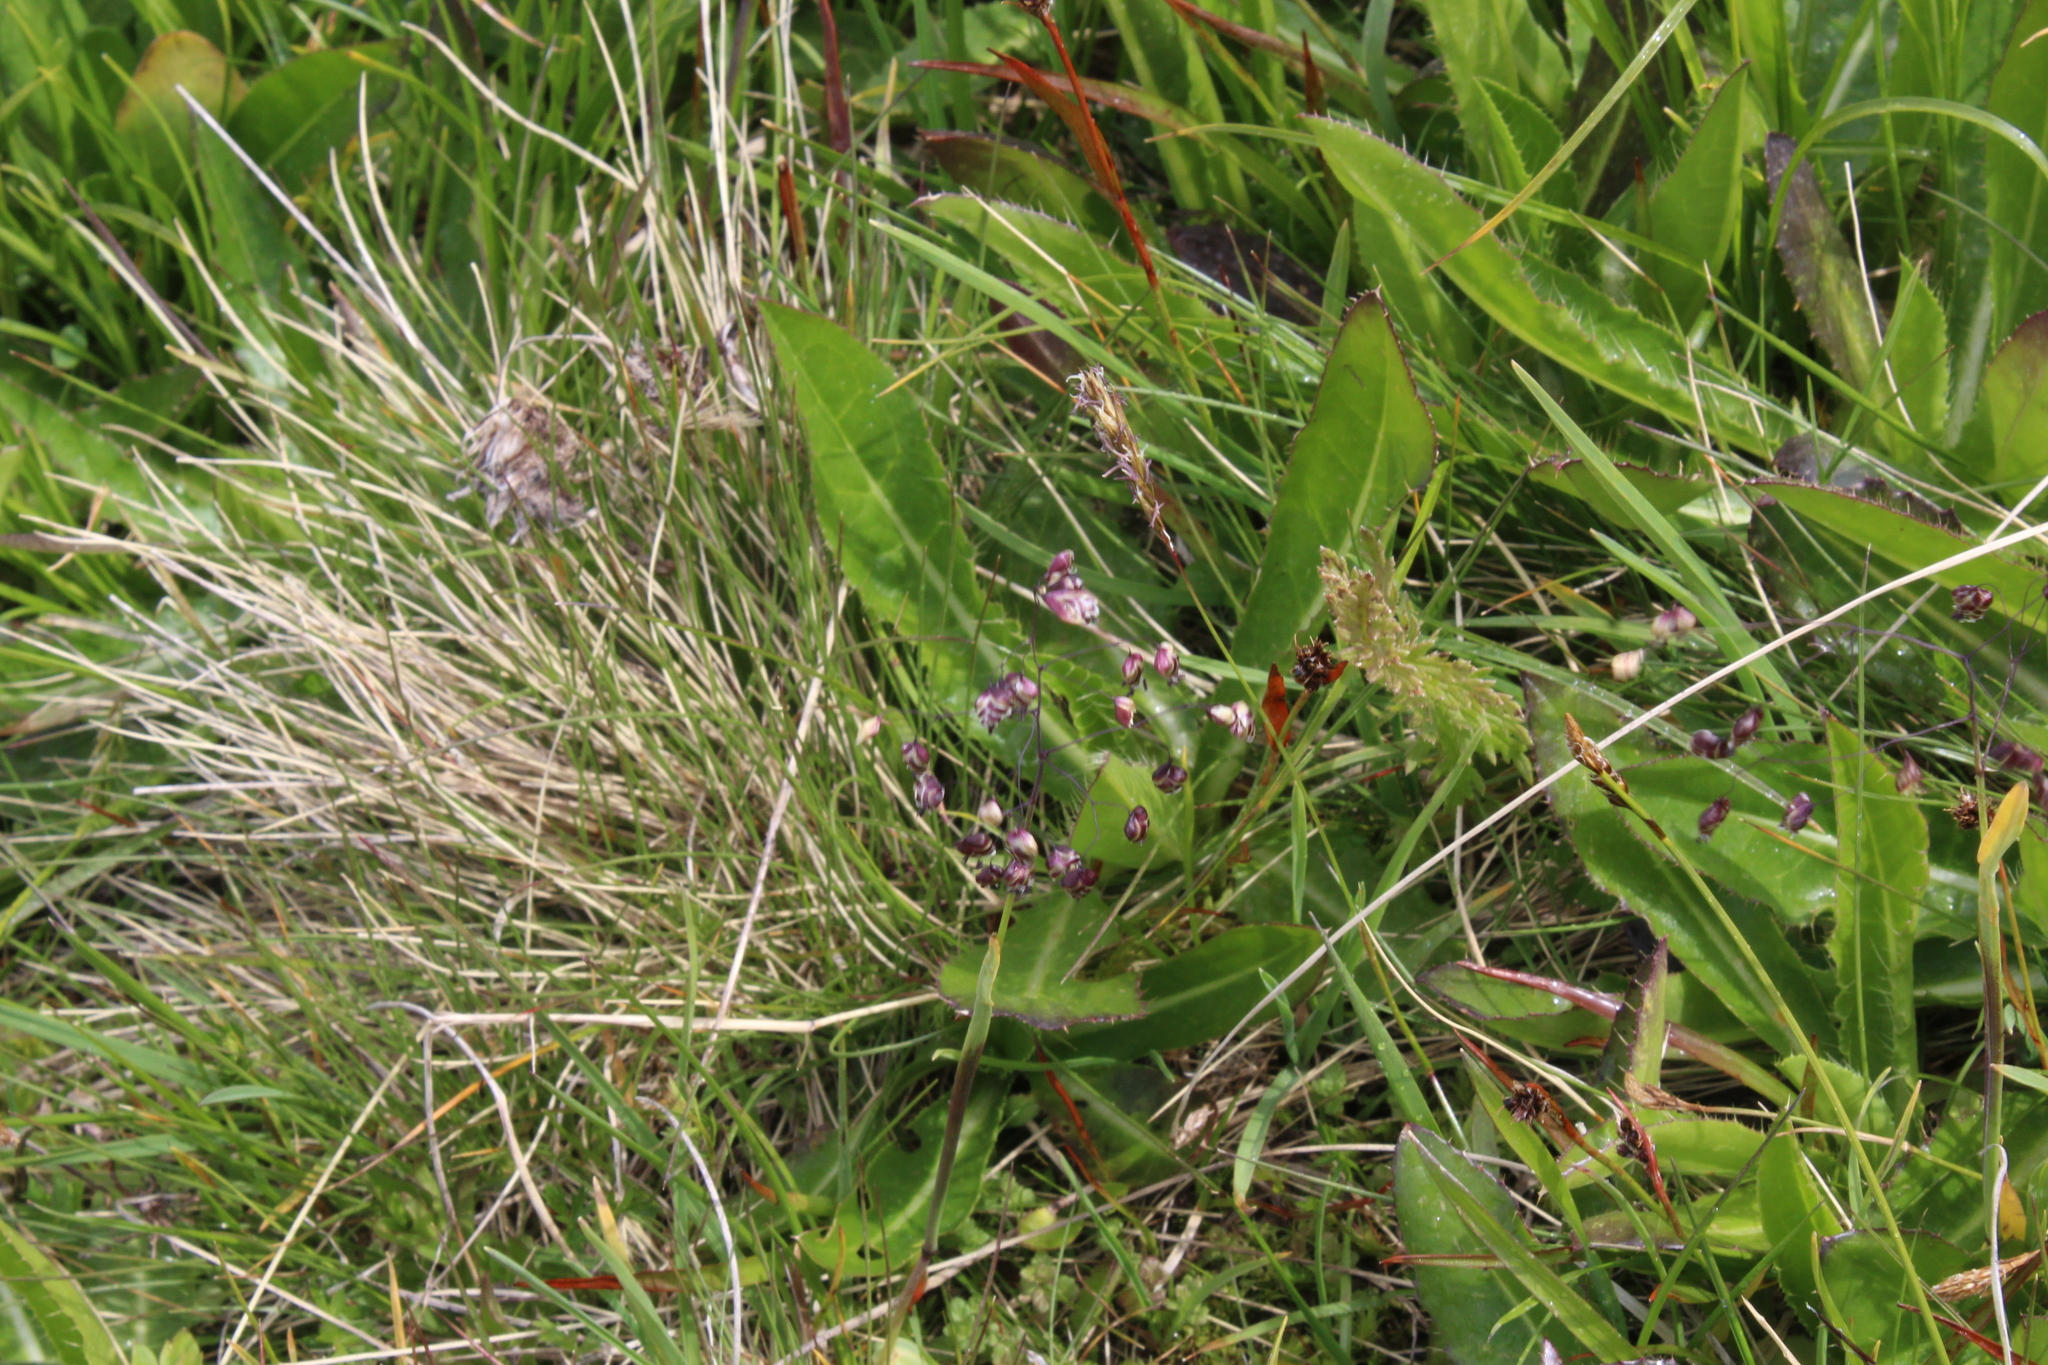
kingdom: Plantae
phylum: Tracheophyta
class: Liliopsida
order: Poales
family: Poaceae
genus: Briza
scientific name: Briza marcowiczii
